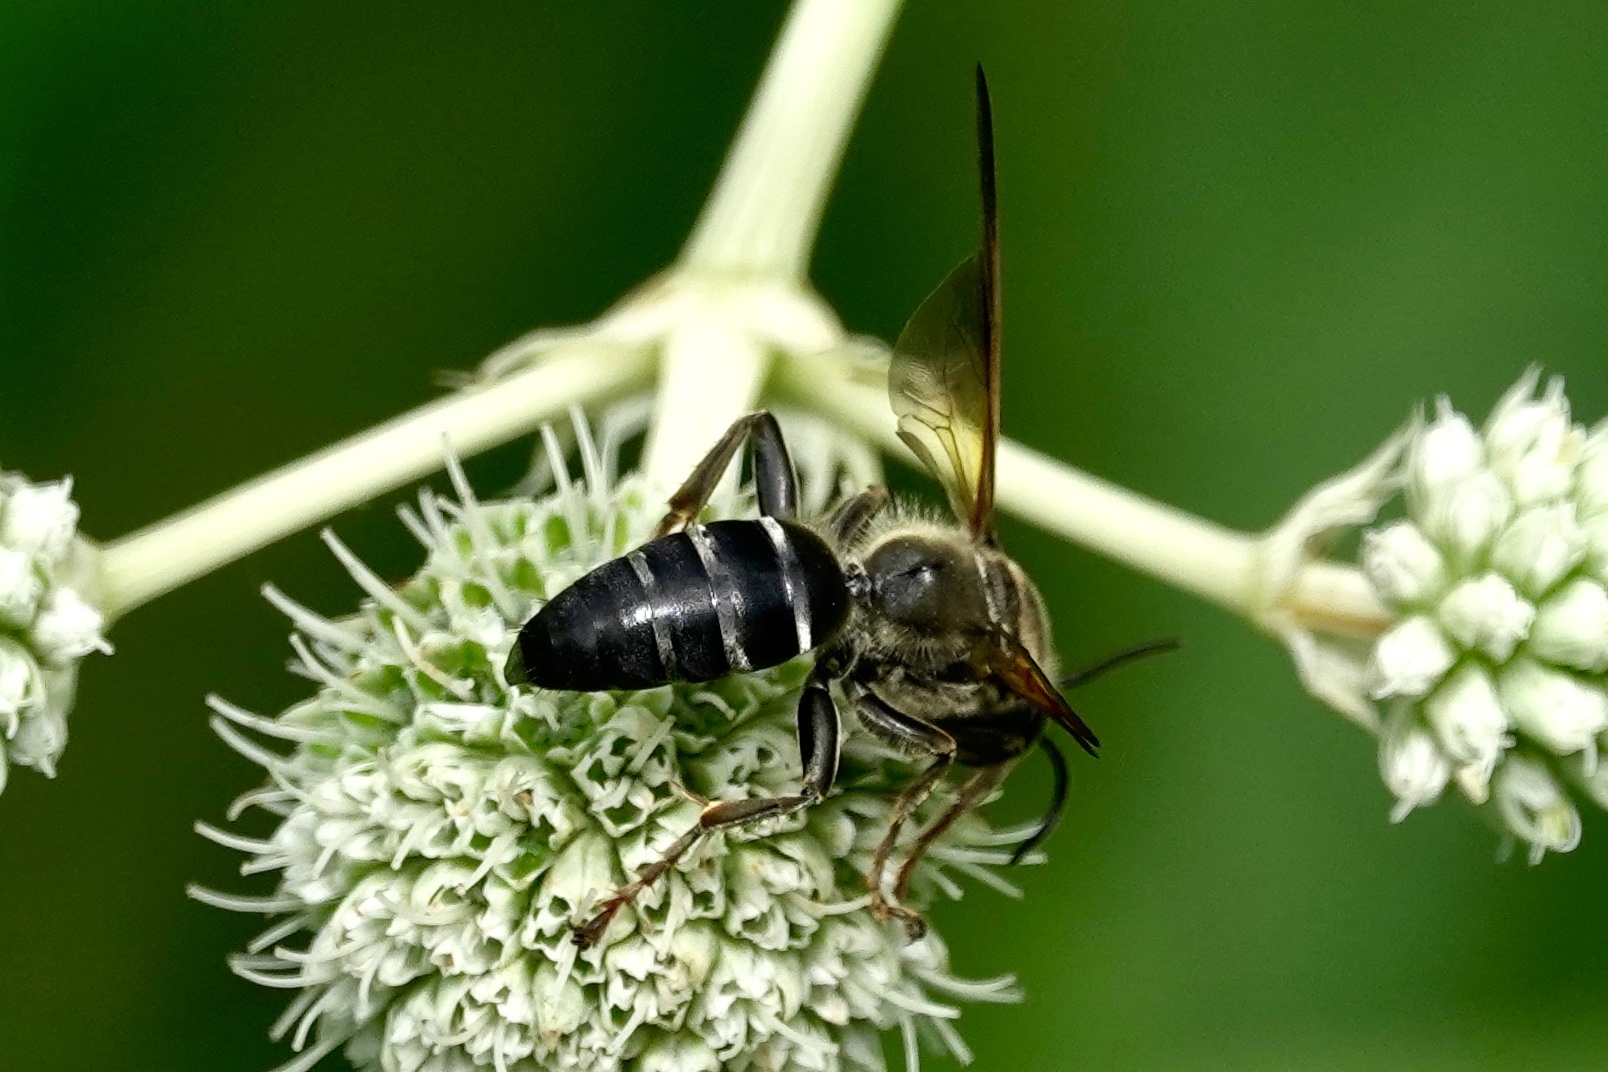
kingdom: Animalia
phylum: Arthropoda
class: Insecta
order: Hymenoptera
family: Crabronidae
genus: Tachytes
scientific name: Tachytes guatemalensis
